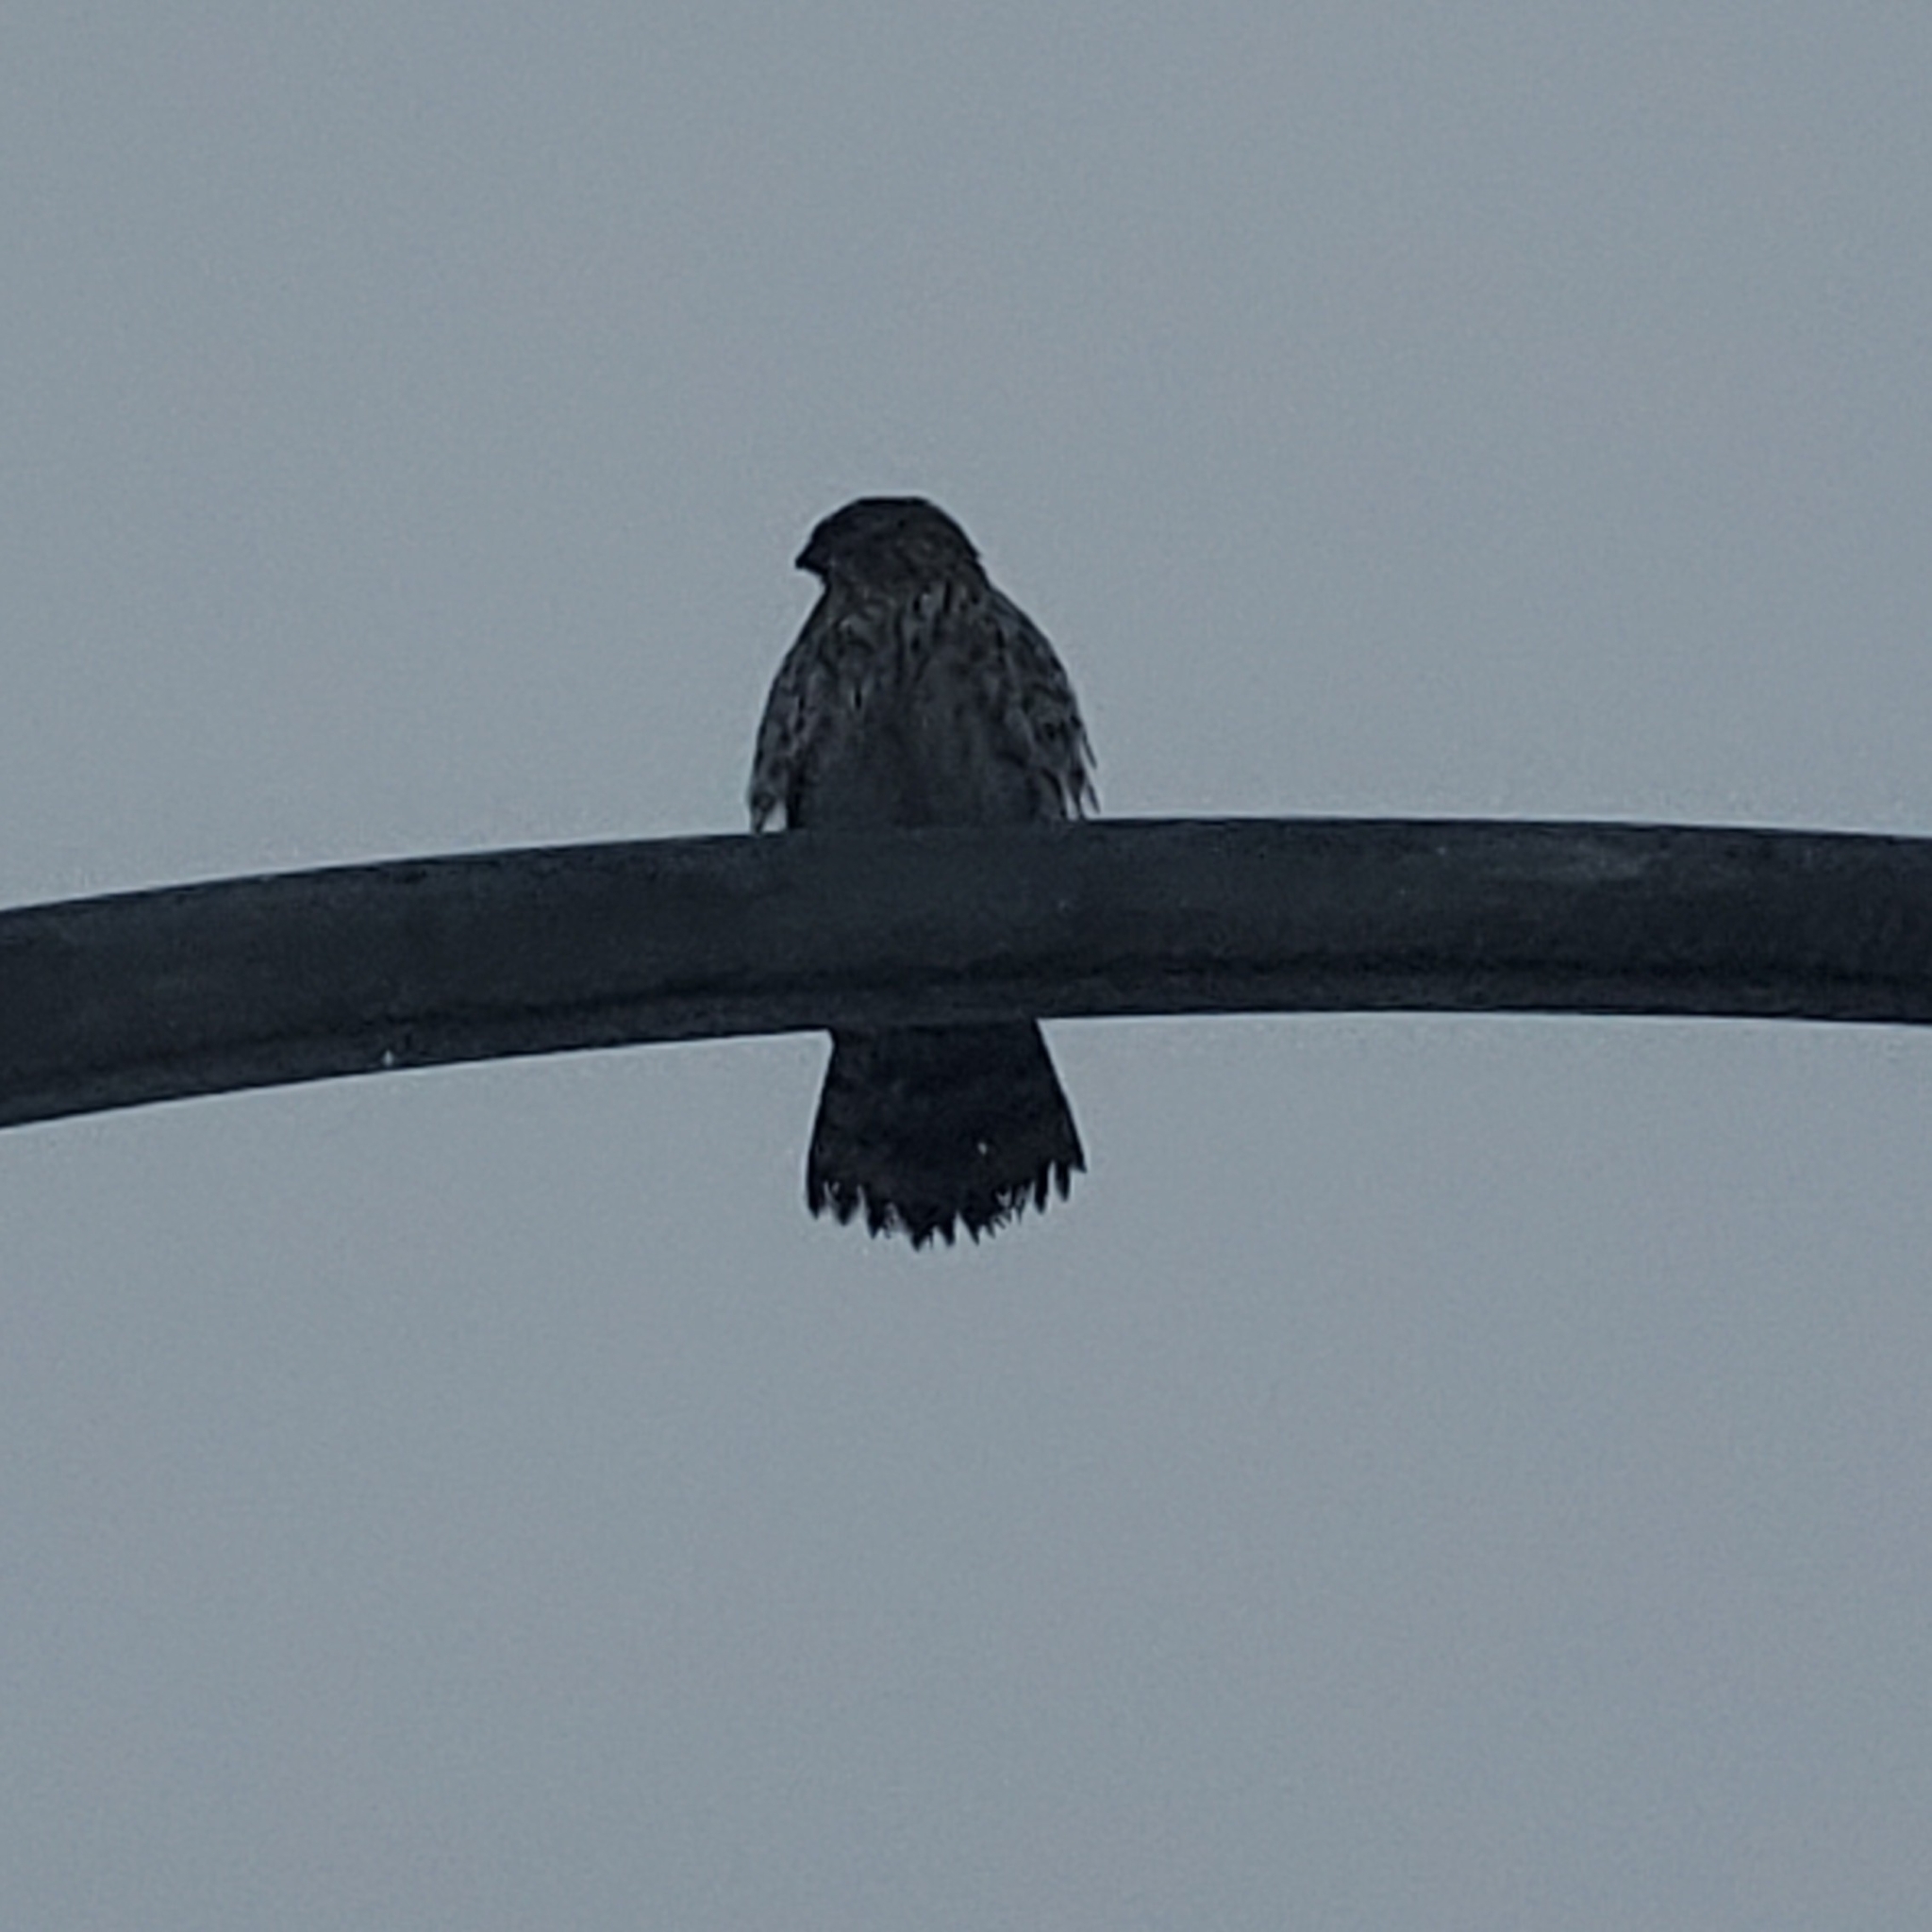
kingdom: Animalia
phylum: Chordata
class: Aves
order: Accipitriformes
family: Accipitridae
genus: Accipiter
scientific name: Accipiter cooperii
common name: Cooper's hawk
